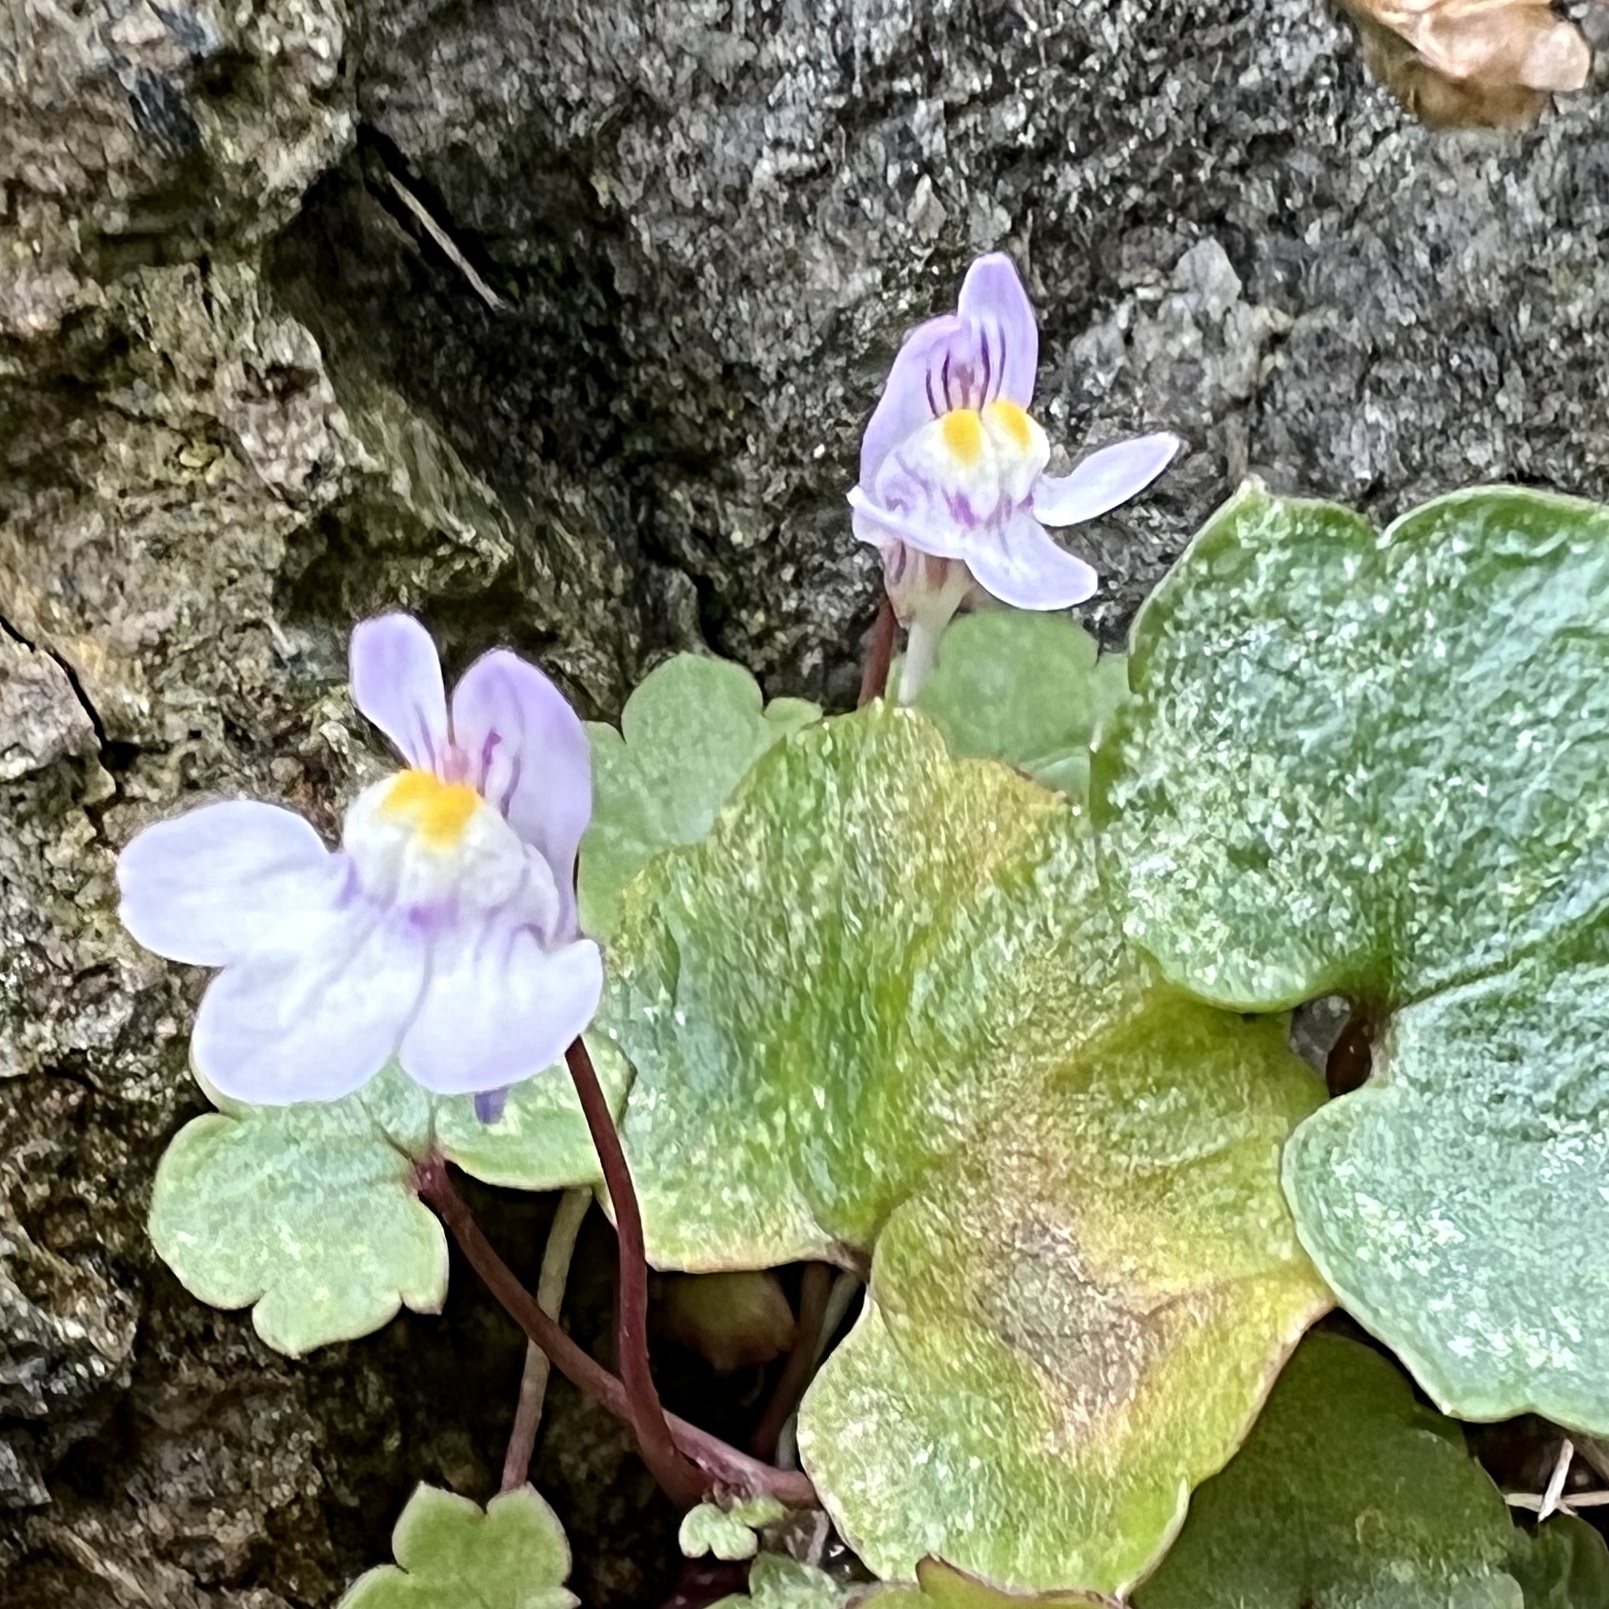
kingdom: Plantae
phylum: Tracheophyta
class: Magnoliopsida
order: Lamiales
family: Plantaginaceae
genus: Cymbalaria
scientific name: Cymbalaria muralis
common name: Ivy-leaved toadflax
